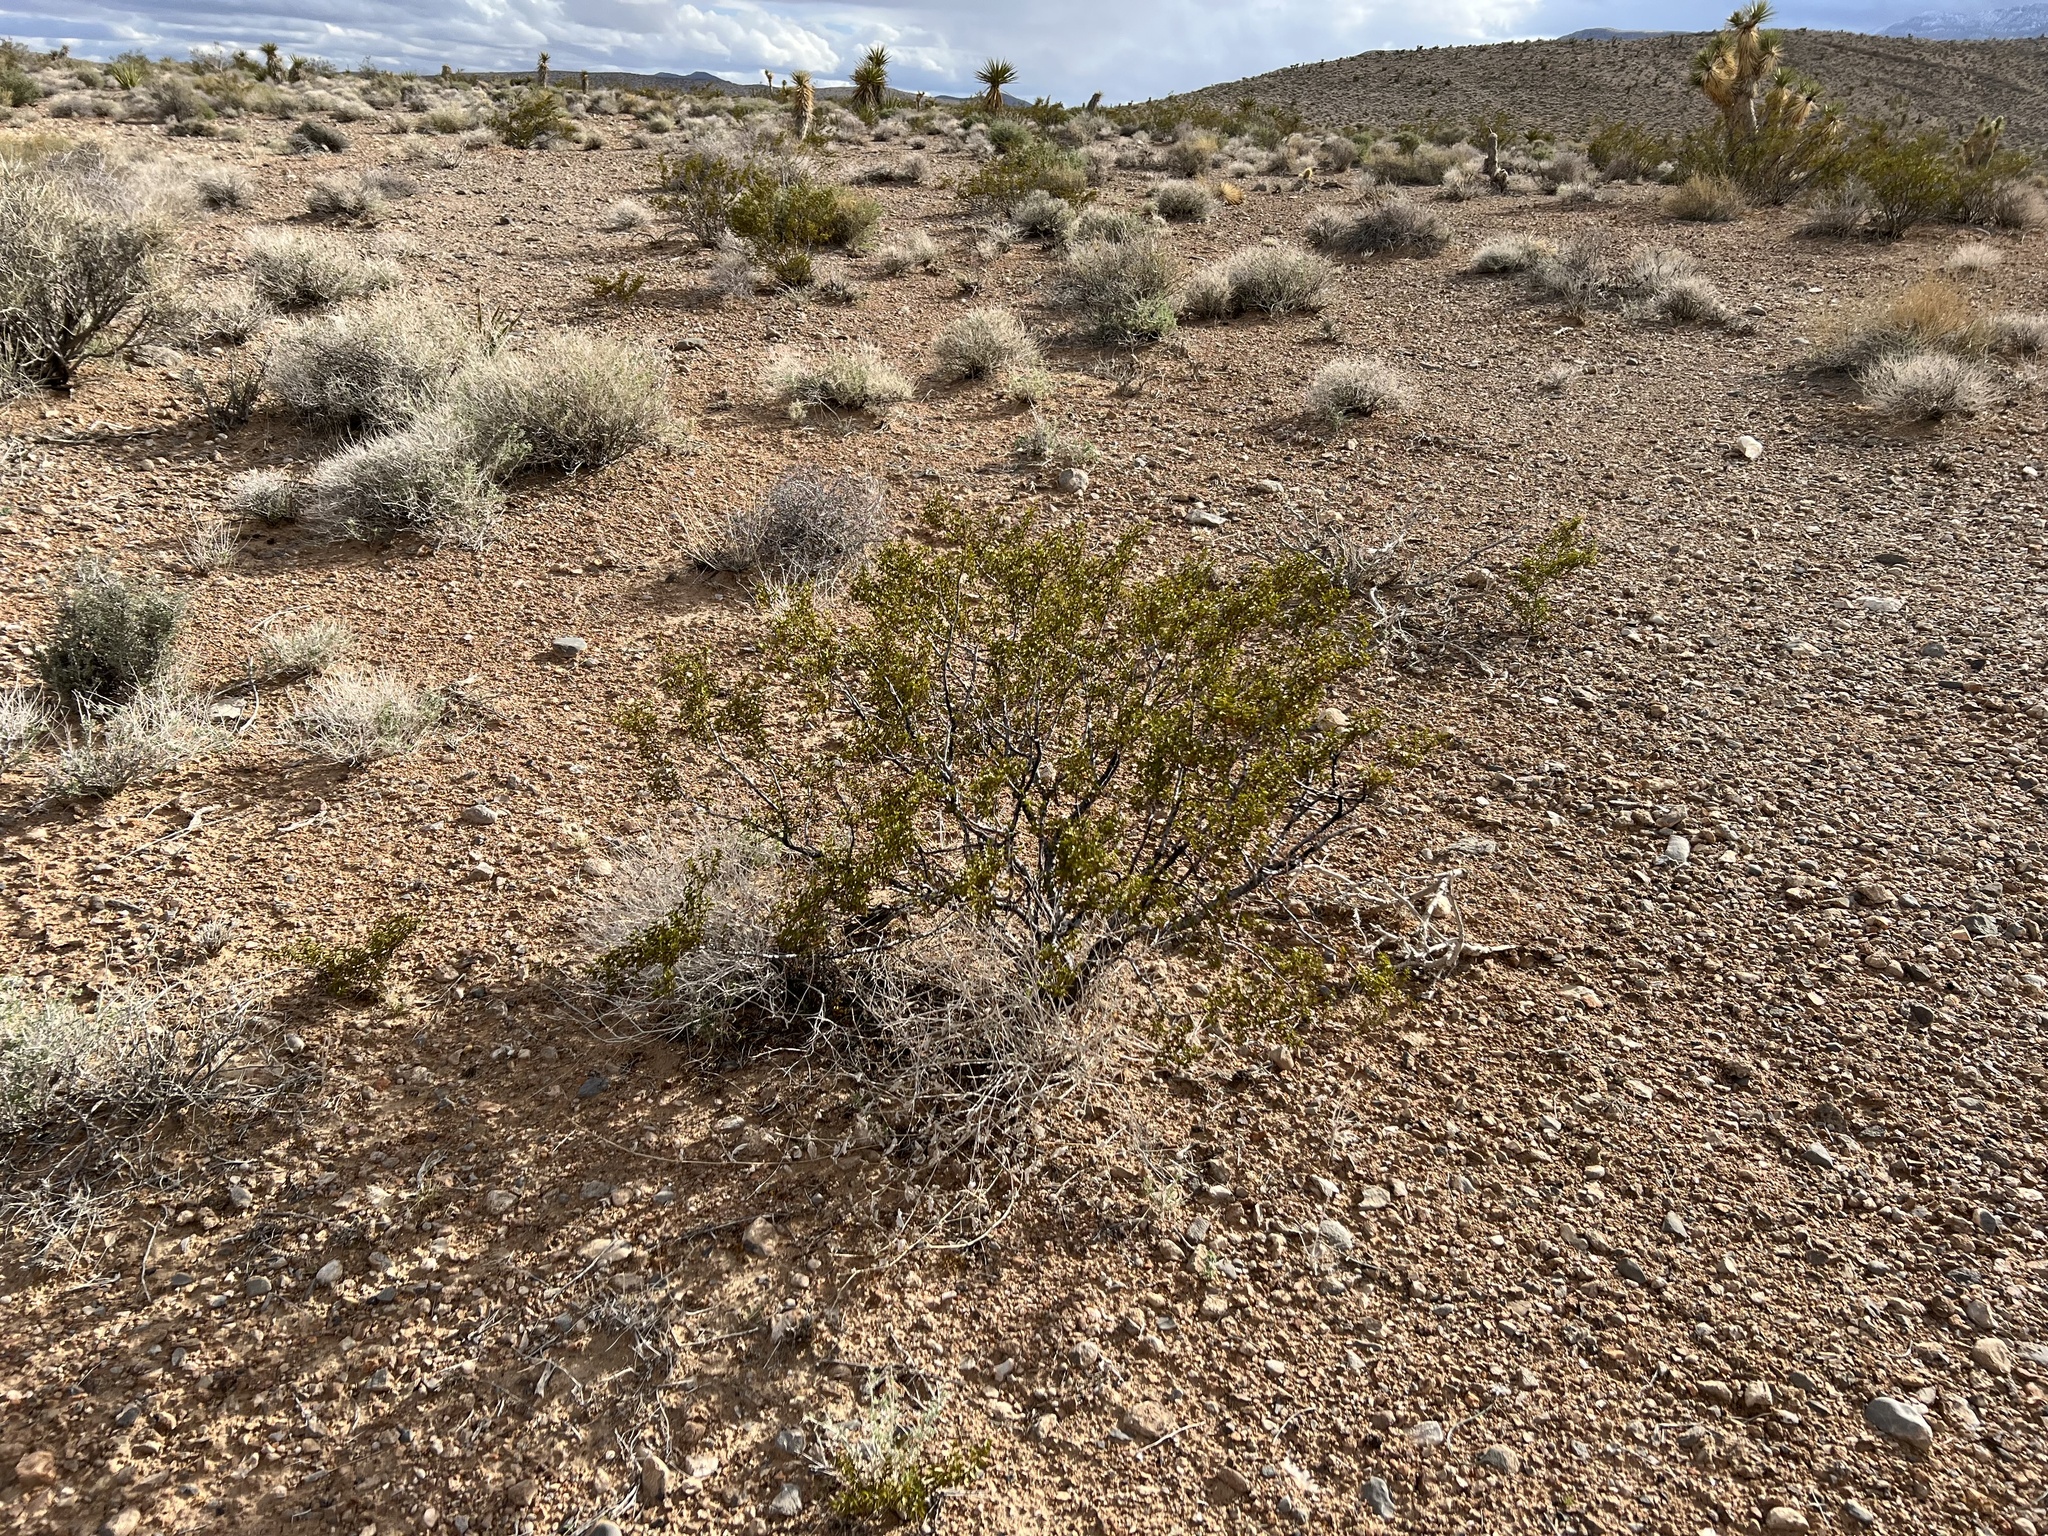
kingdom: Plantae
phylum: Tracheophyta
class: Magnoliopsida
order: Zygophyllales
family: Zygophyllaceae
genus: Larrea
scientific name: Larrea tridentata
